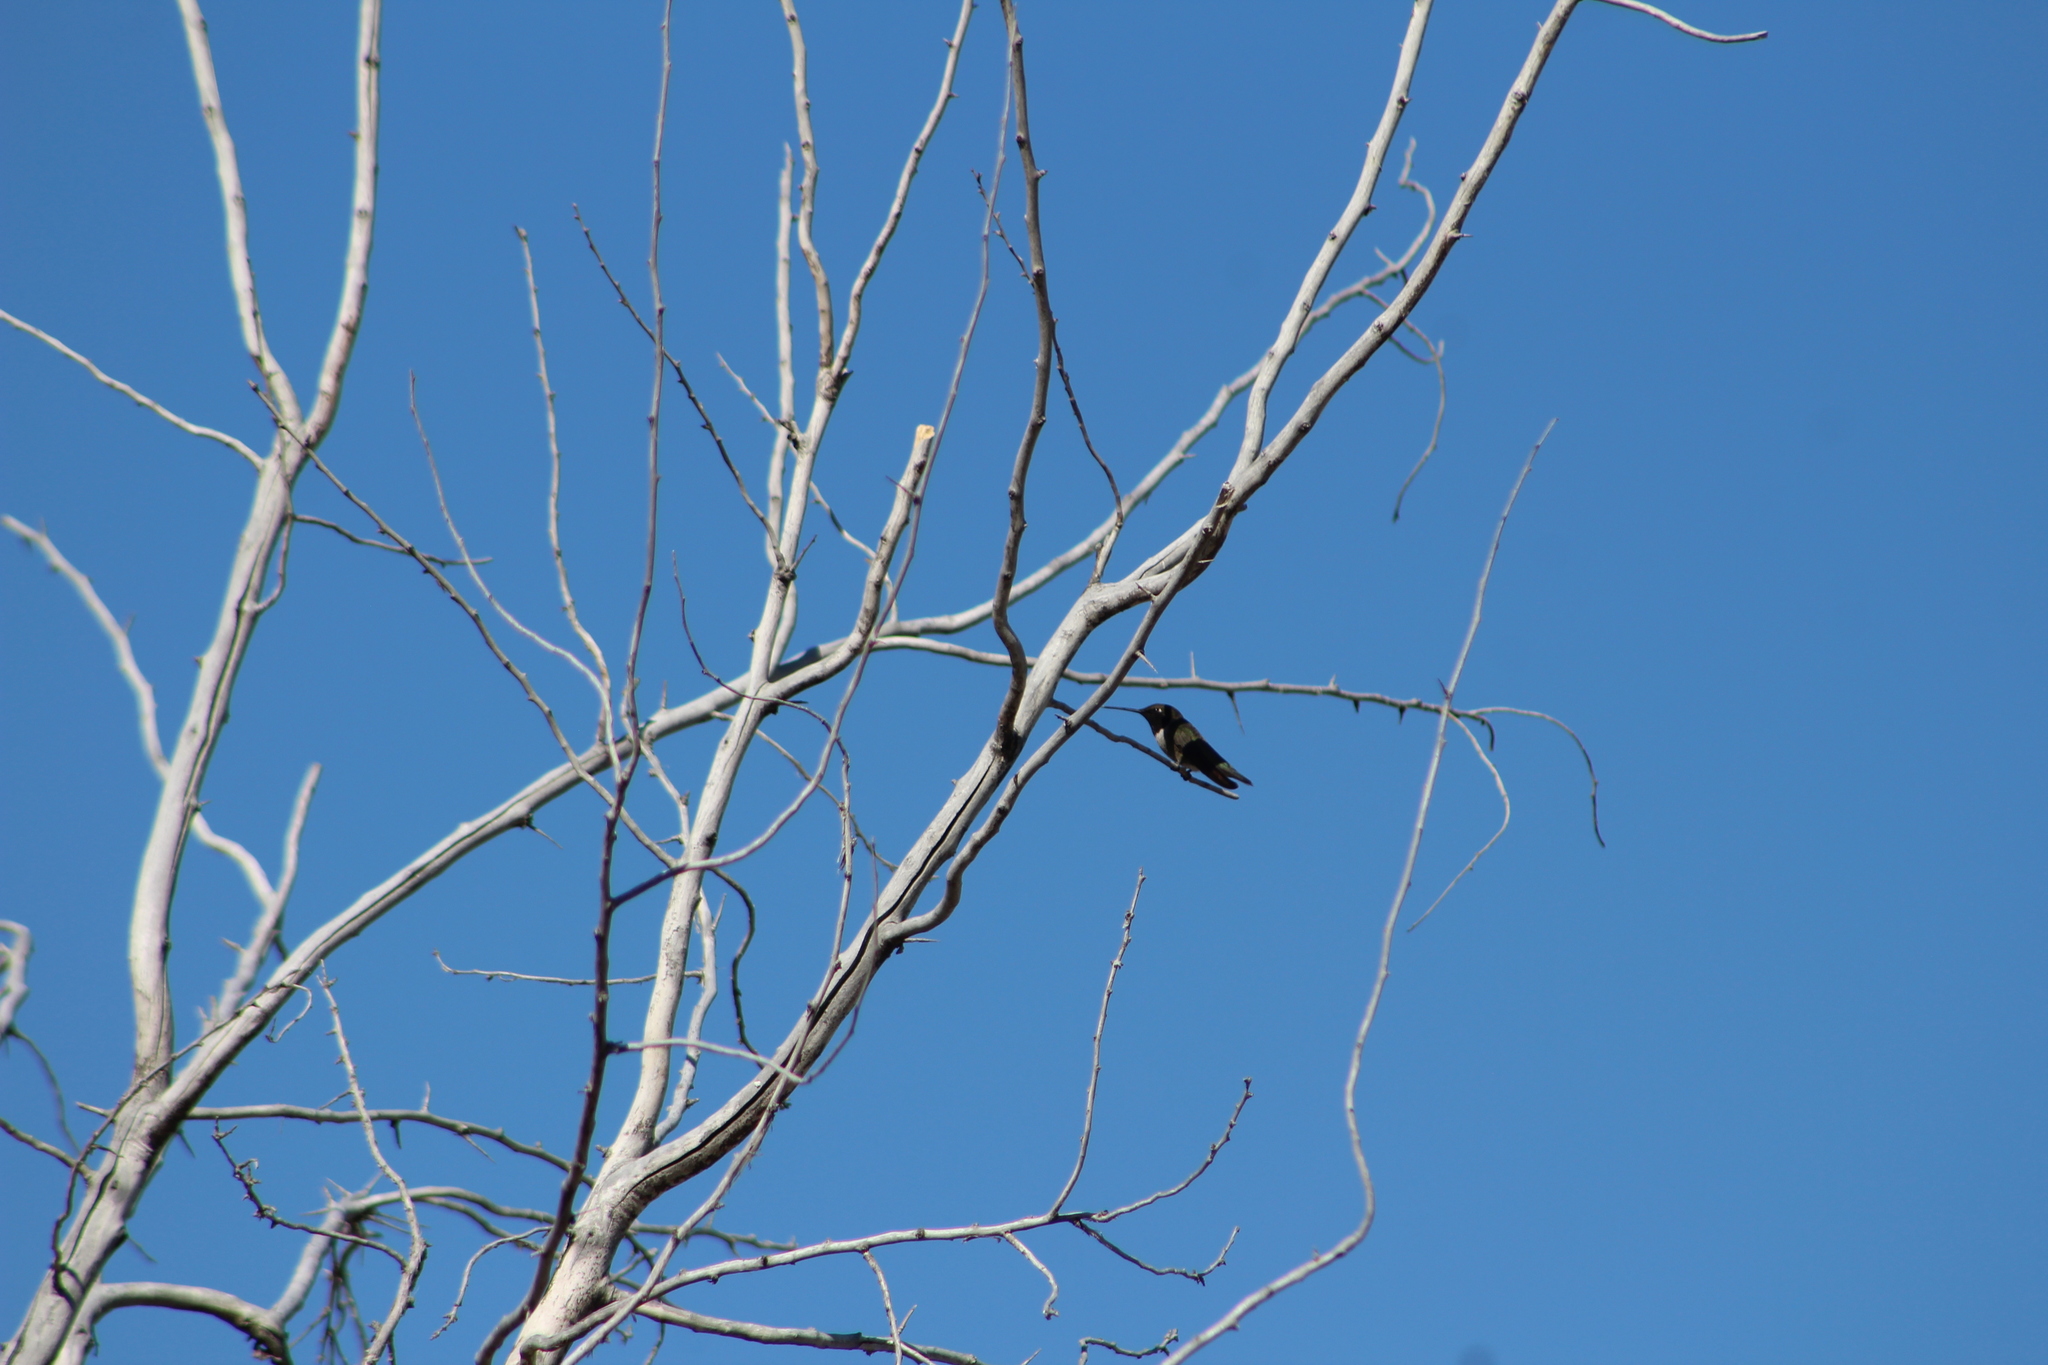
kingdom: Animalia
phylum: Chordata
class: Aves
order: Apodiformes
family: Trochilidae
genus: Archilochus
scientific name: Archilochus alexandri
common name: Black-chinned hummingbird
